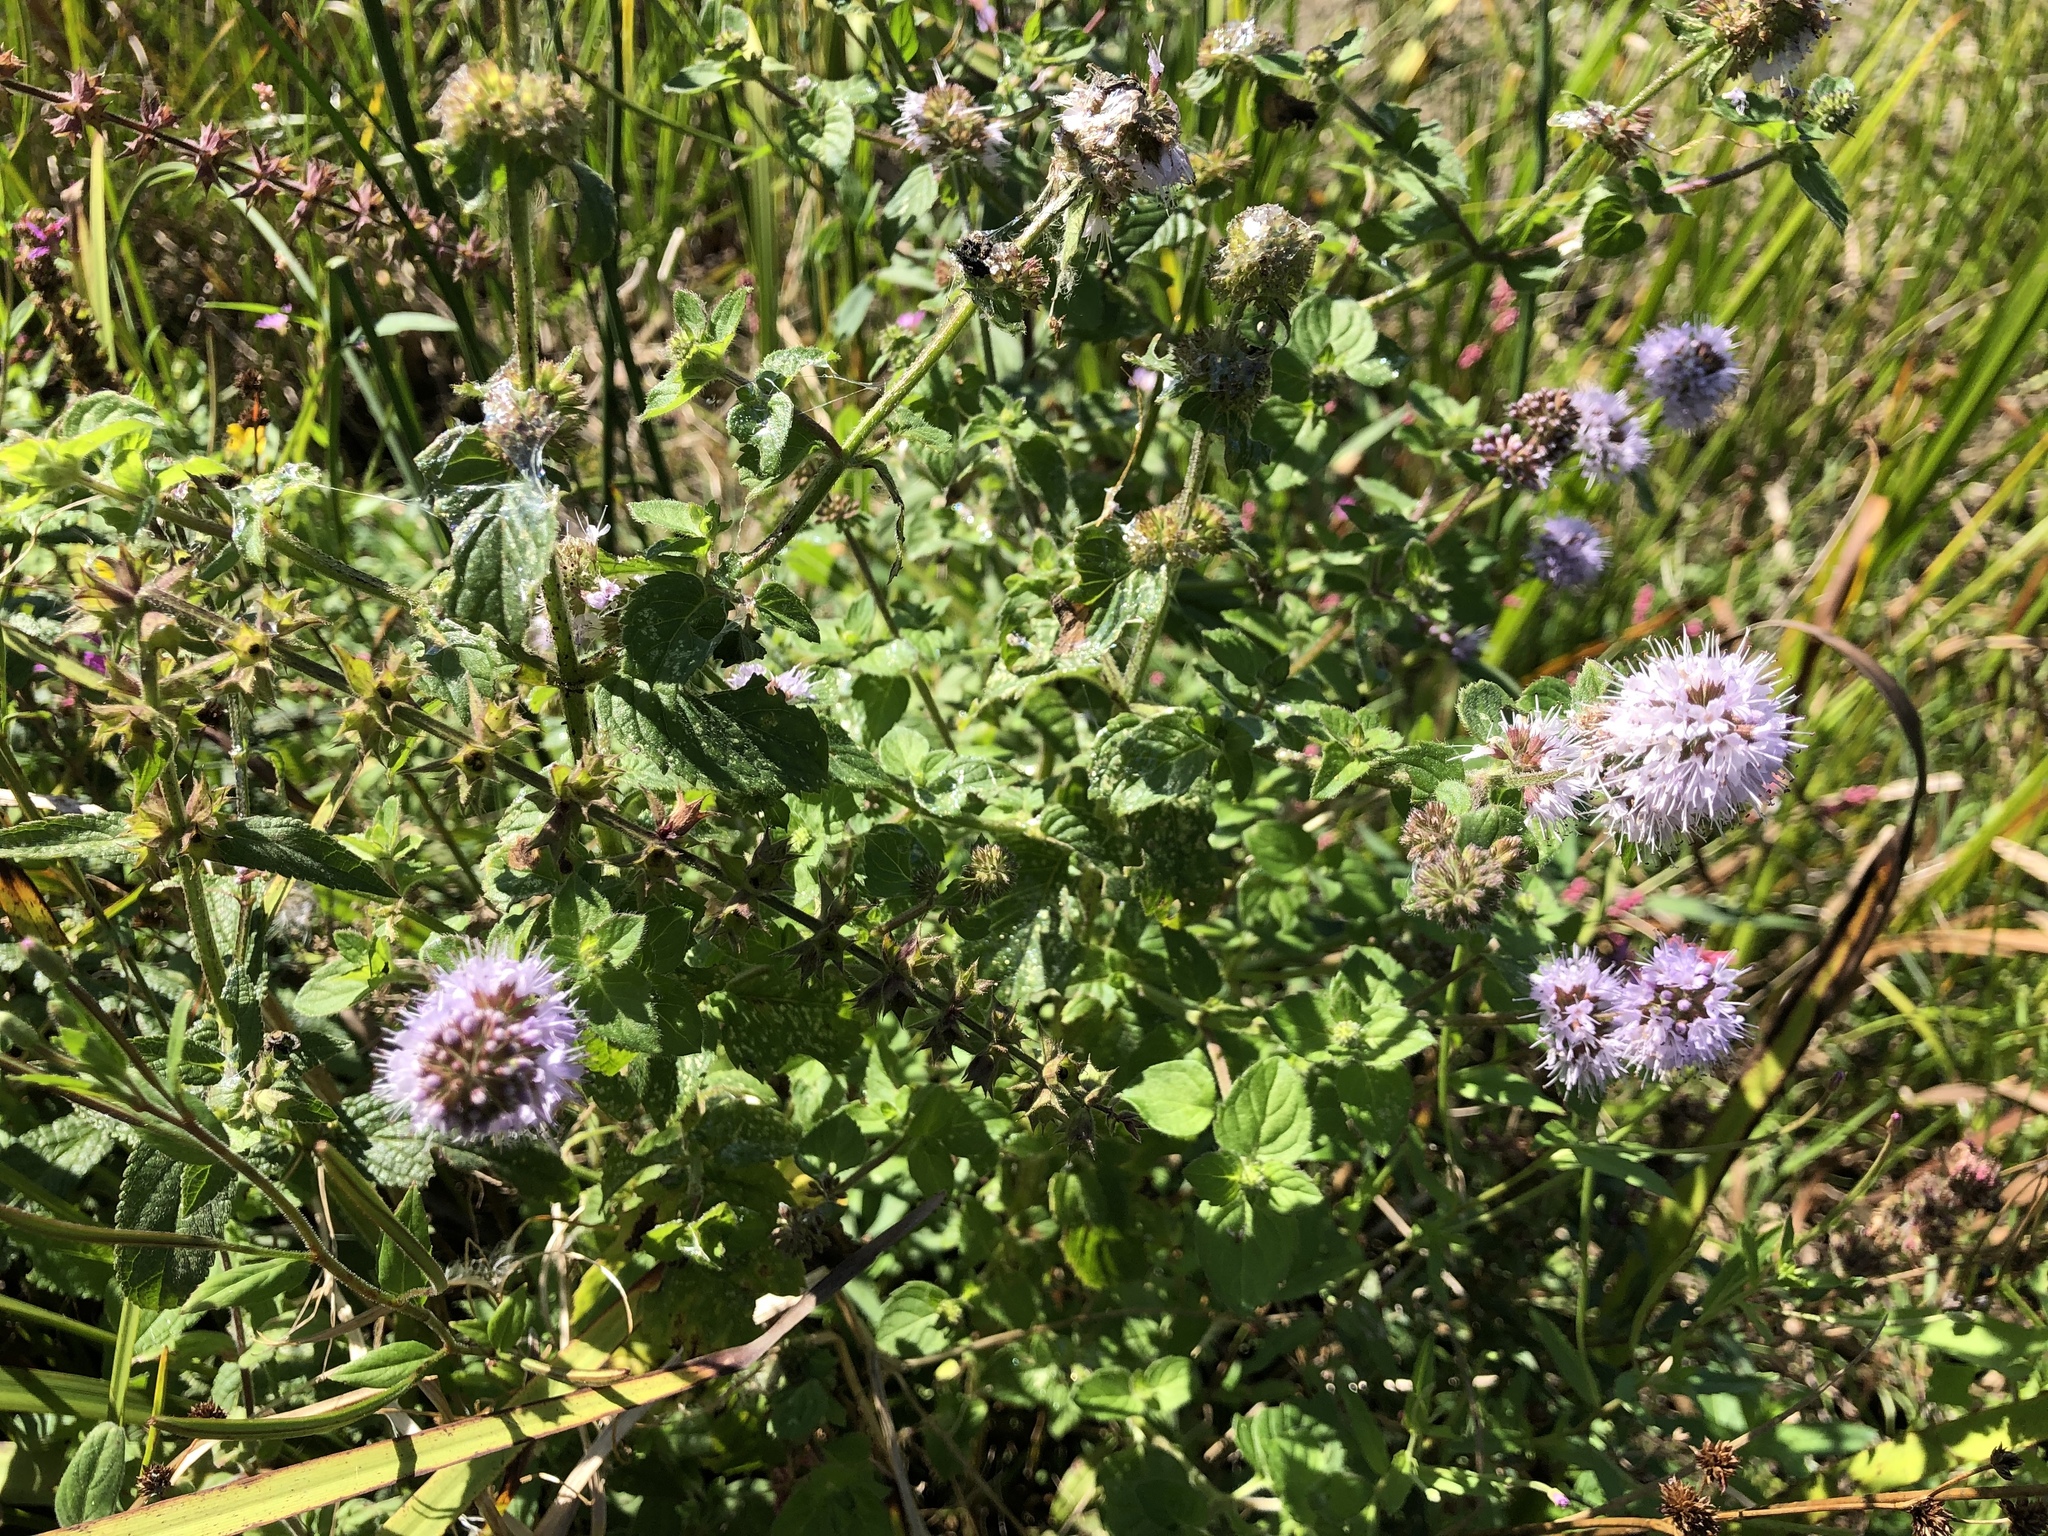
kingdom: Plantae
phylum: Tracheophyta
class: Magnoliopsida
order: Lamiales
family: Lamiaceae
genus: Mentha
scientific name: Mentha aquatica
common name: Water mint
